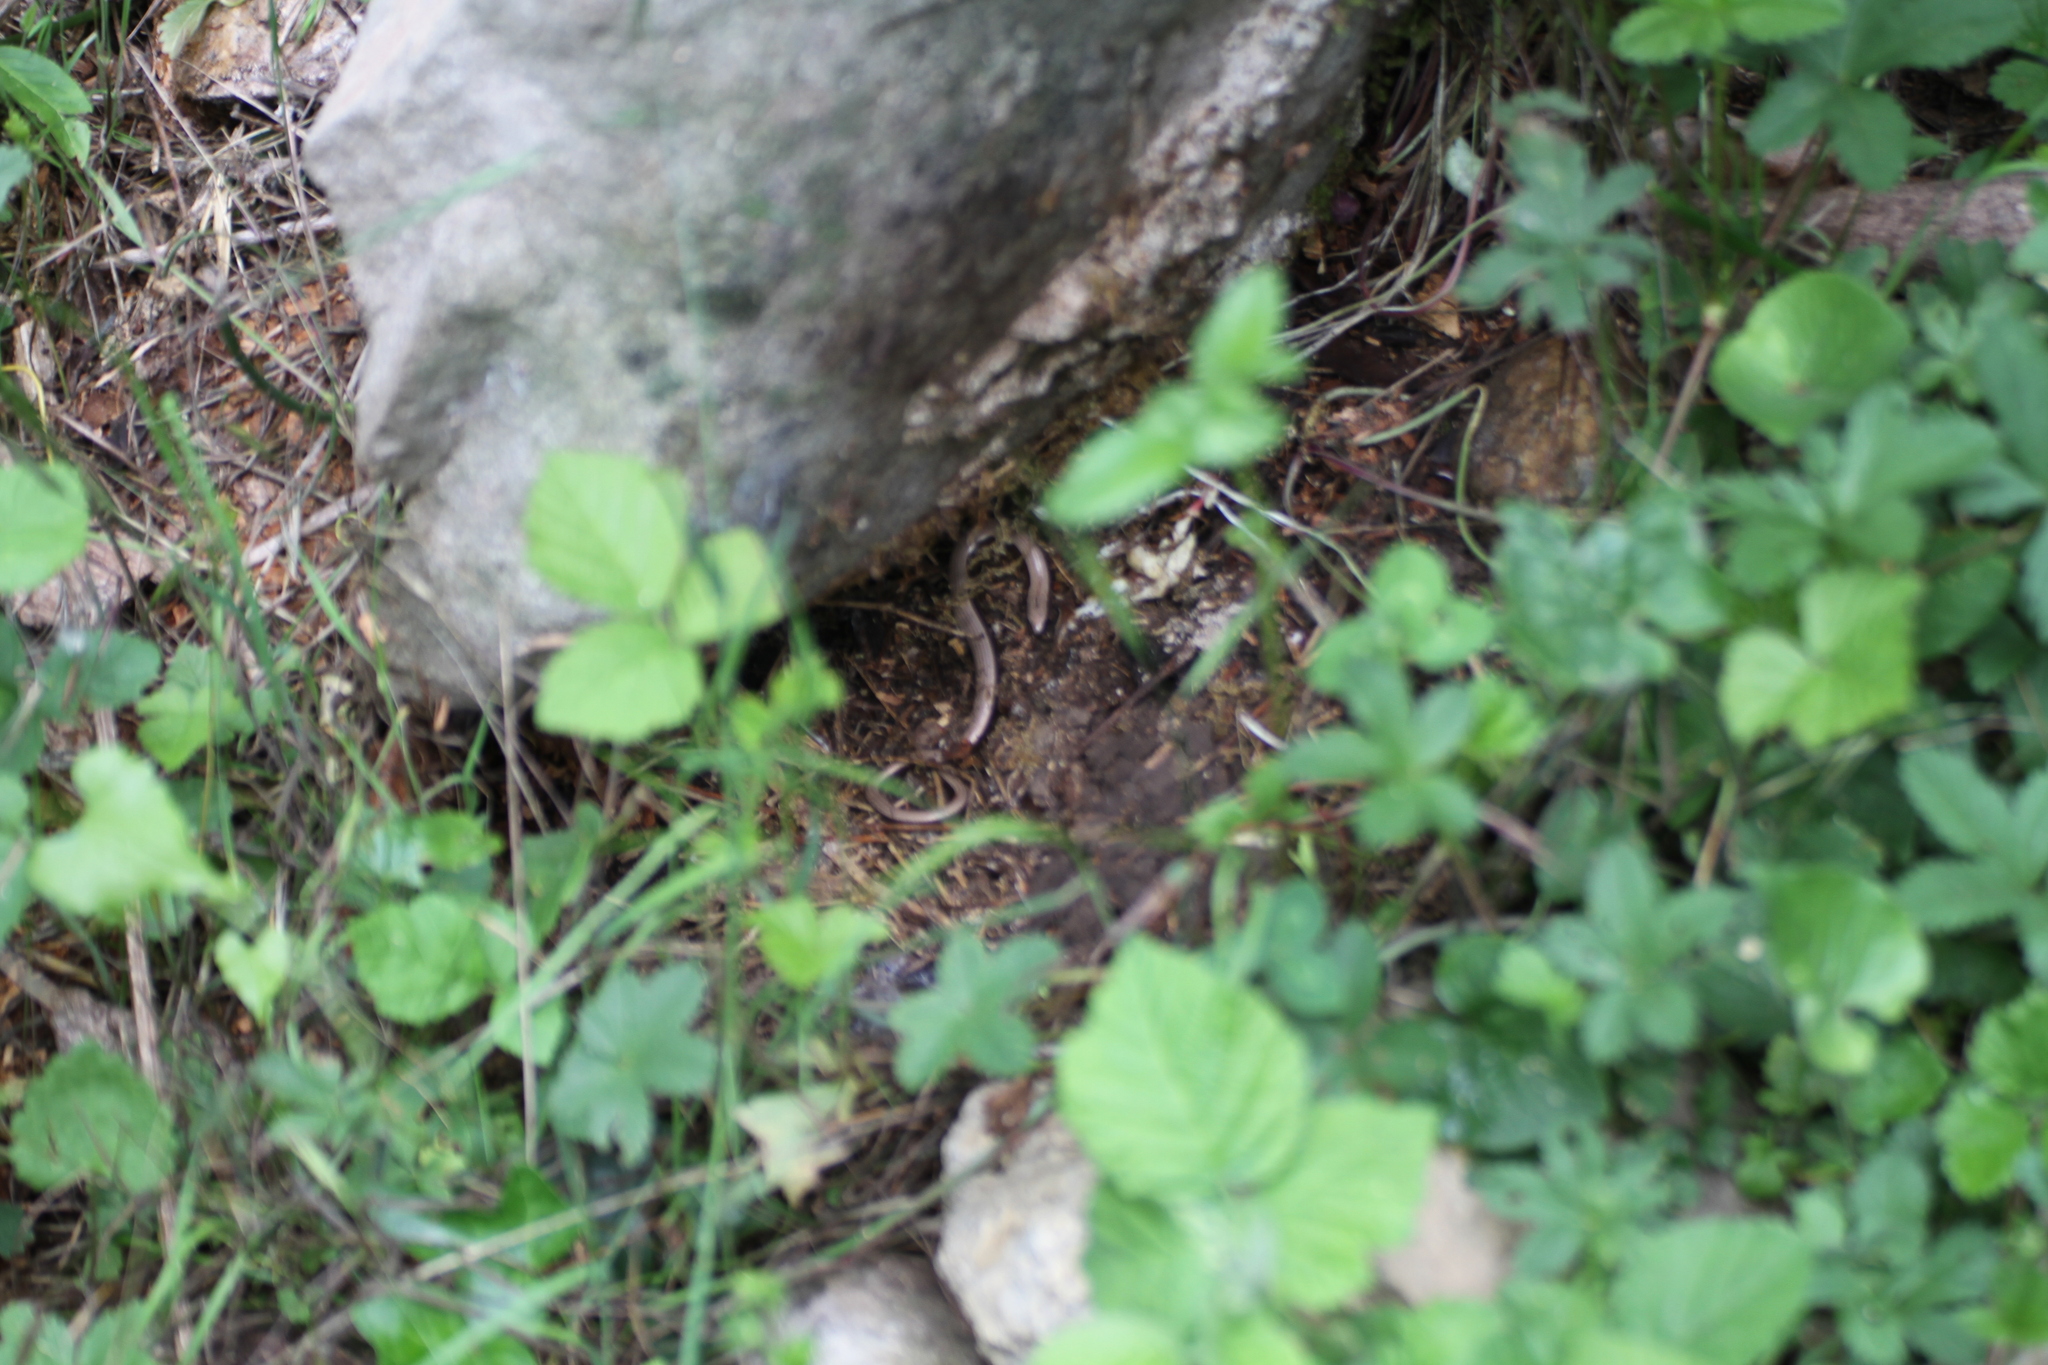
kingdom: Animalia
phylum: Chordata
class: Squamata
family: Anguidae
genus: Anguis
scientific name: Anguis veronensis
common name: Italian slow worm
